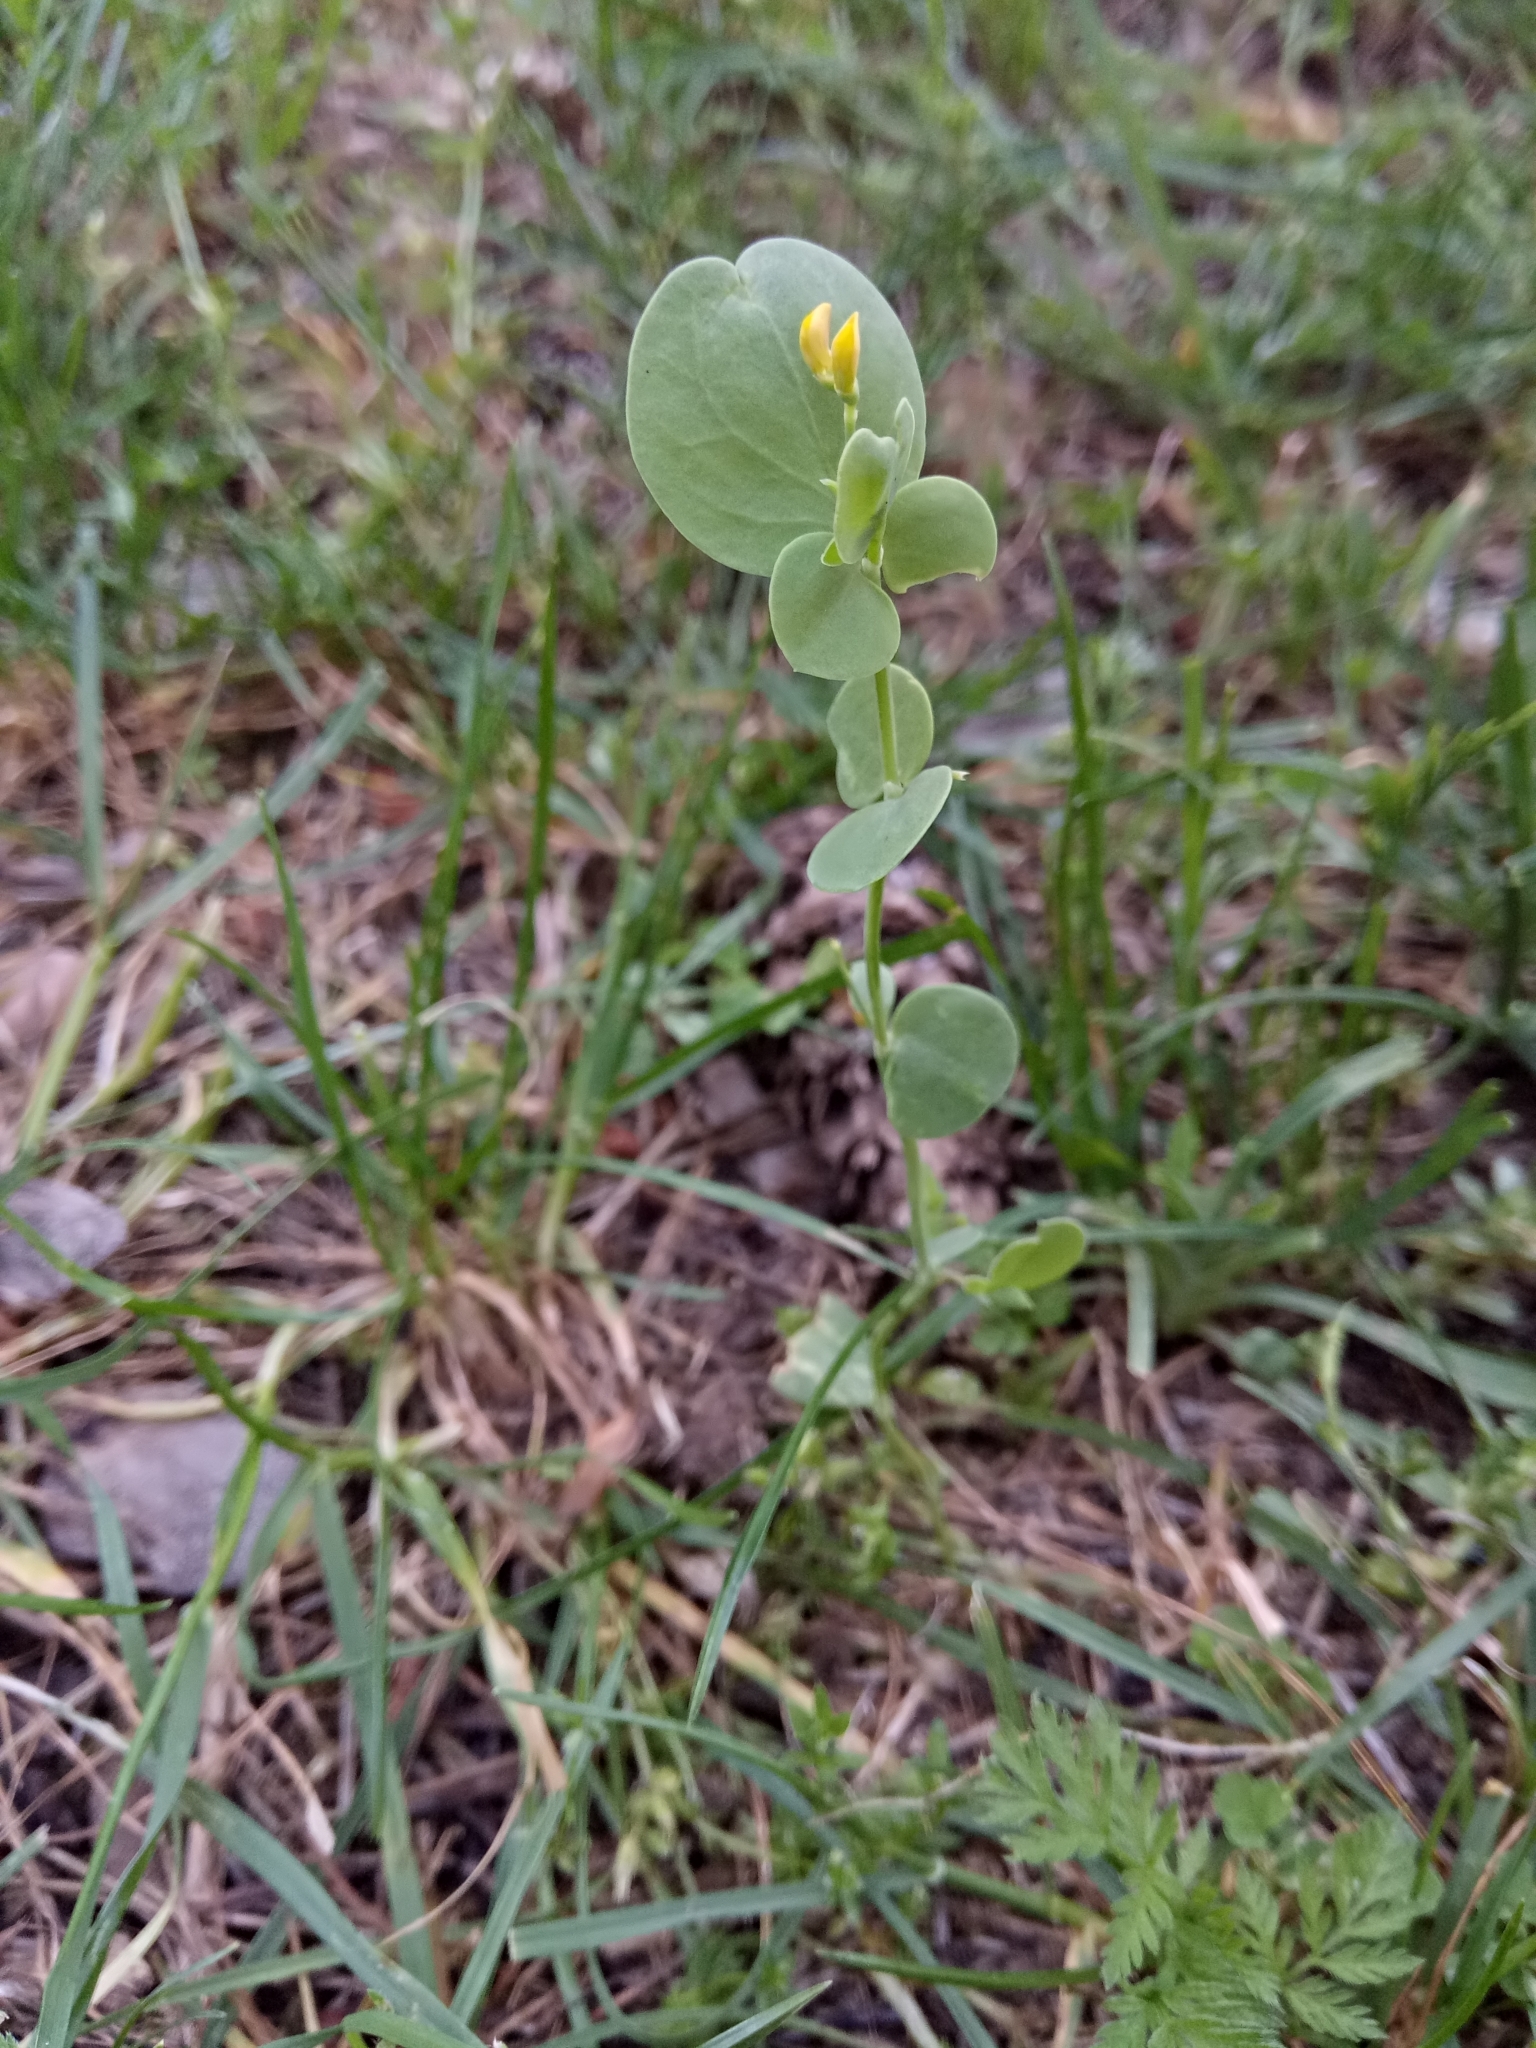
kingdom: Plantae
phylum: Tracheophyta
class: Magnoliopsida
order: Fabales
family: Fabaceae
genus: Coronilla
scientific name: Coronilla scorpioides
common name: Annual scorpion-vetch
